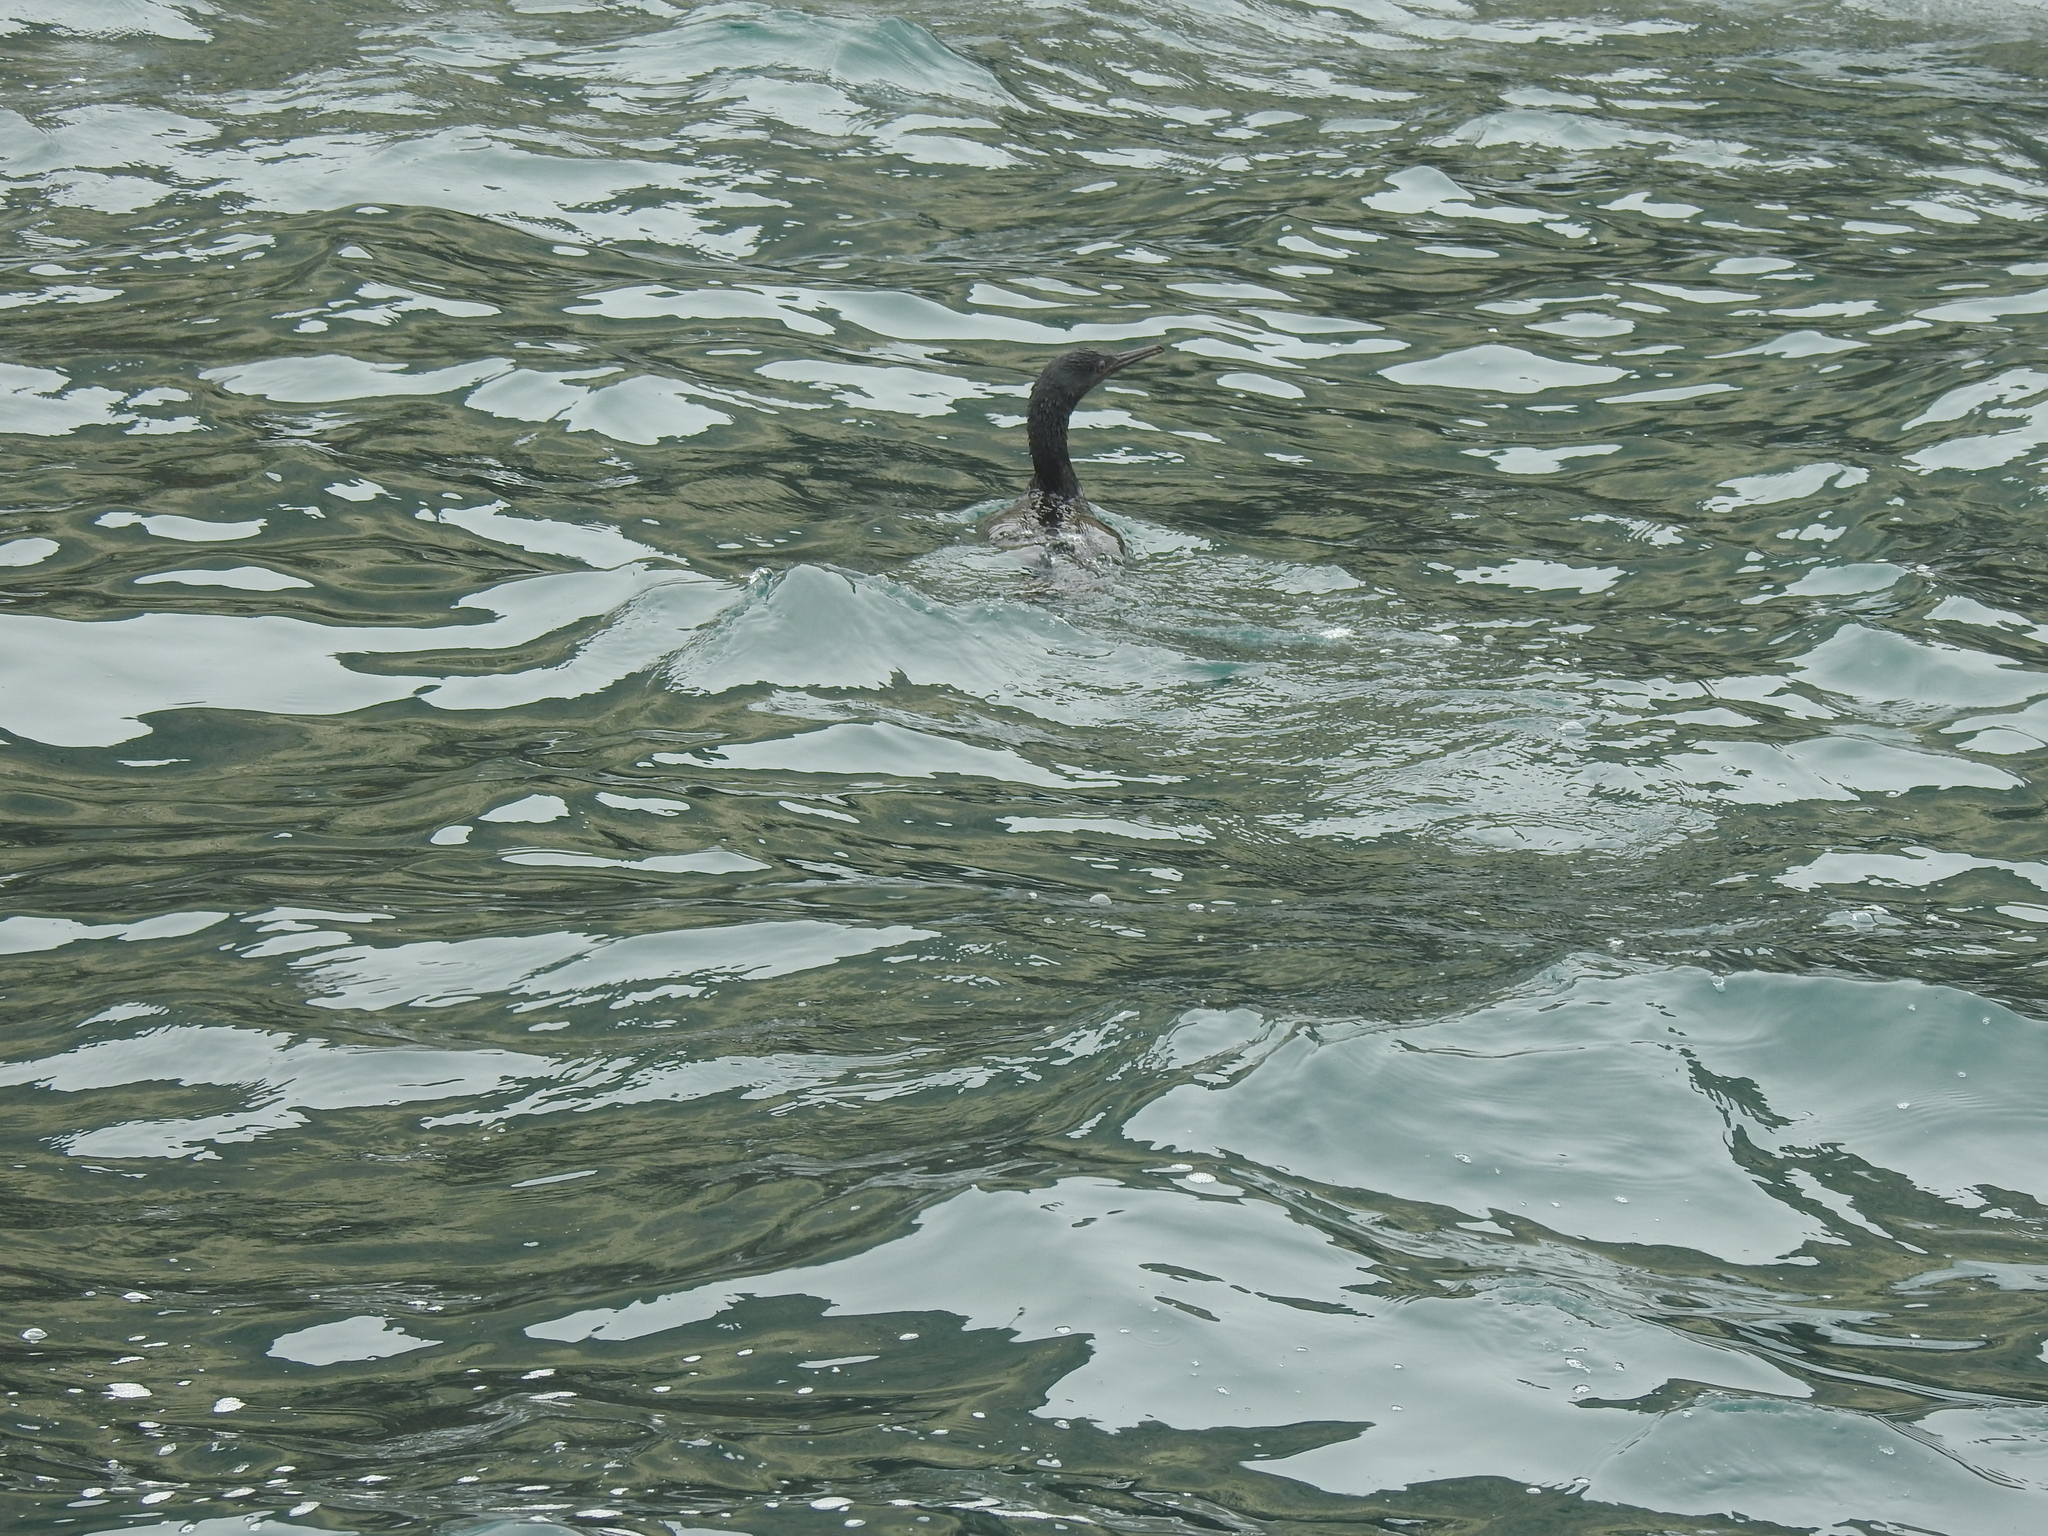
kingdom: Animalia
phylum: Chordata
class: Aves
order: Suliformes
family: Phalacrocoracidae
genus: Phalacrocorax
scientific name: Phalacrocorax pelagicus
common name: Pelagic cormorant
